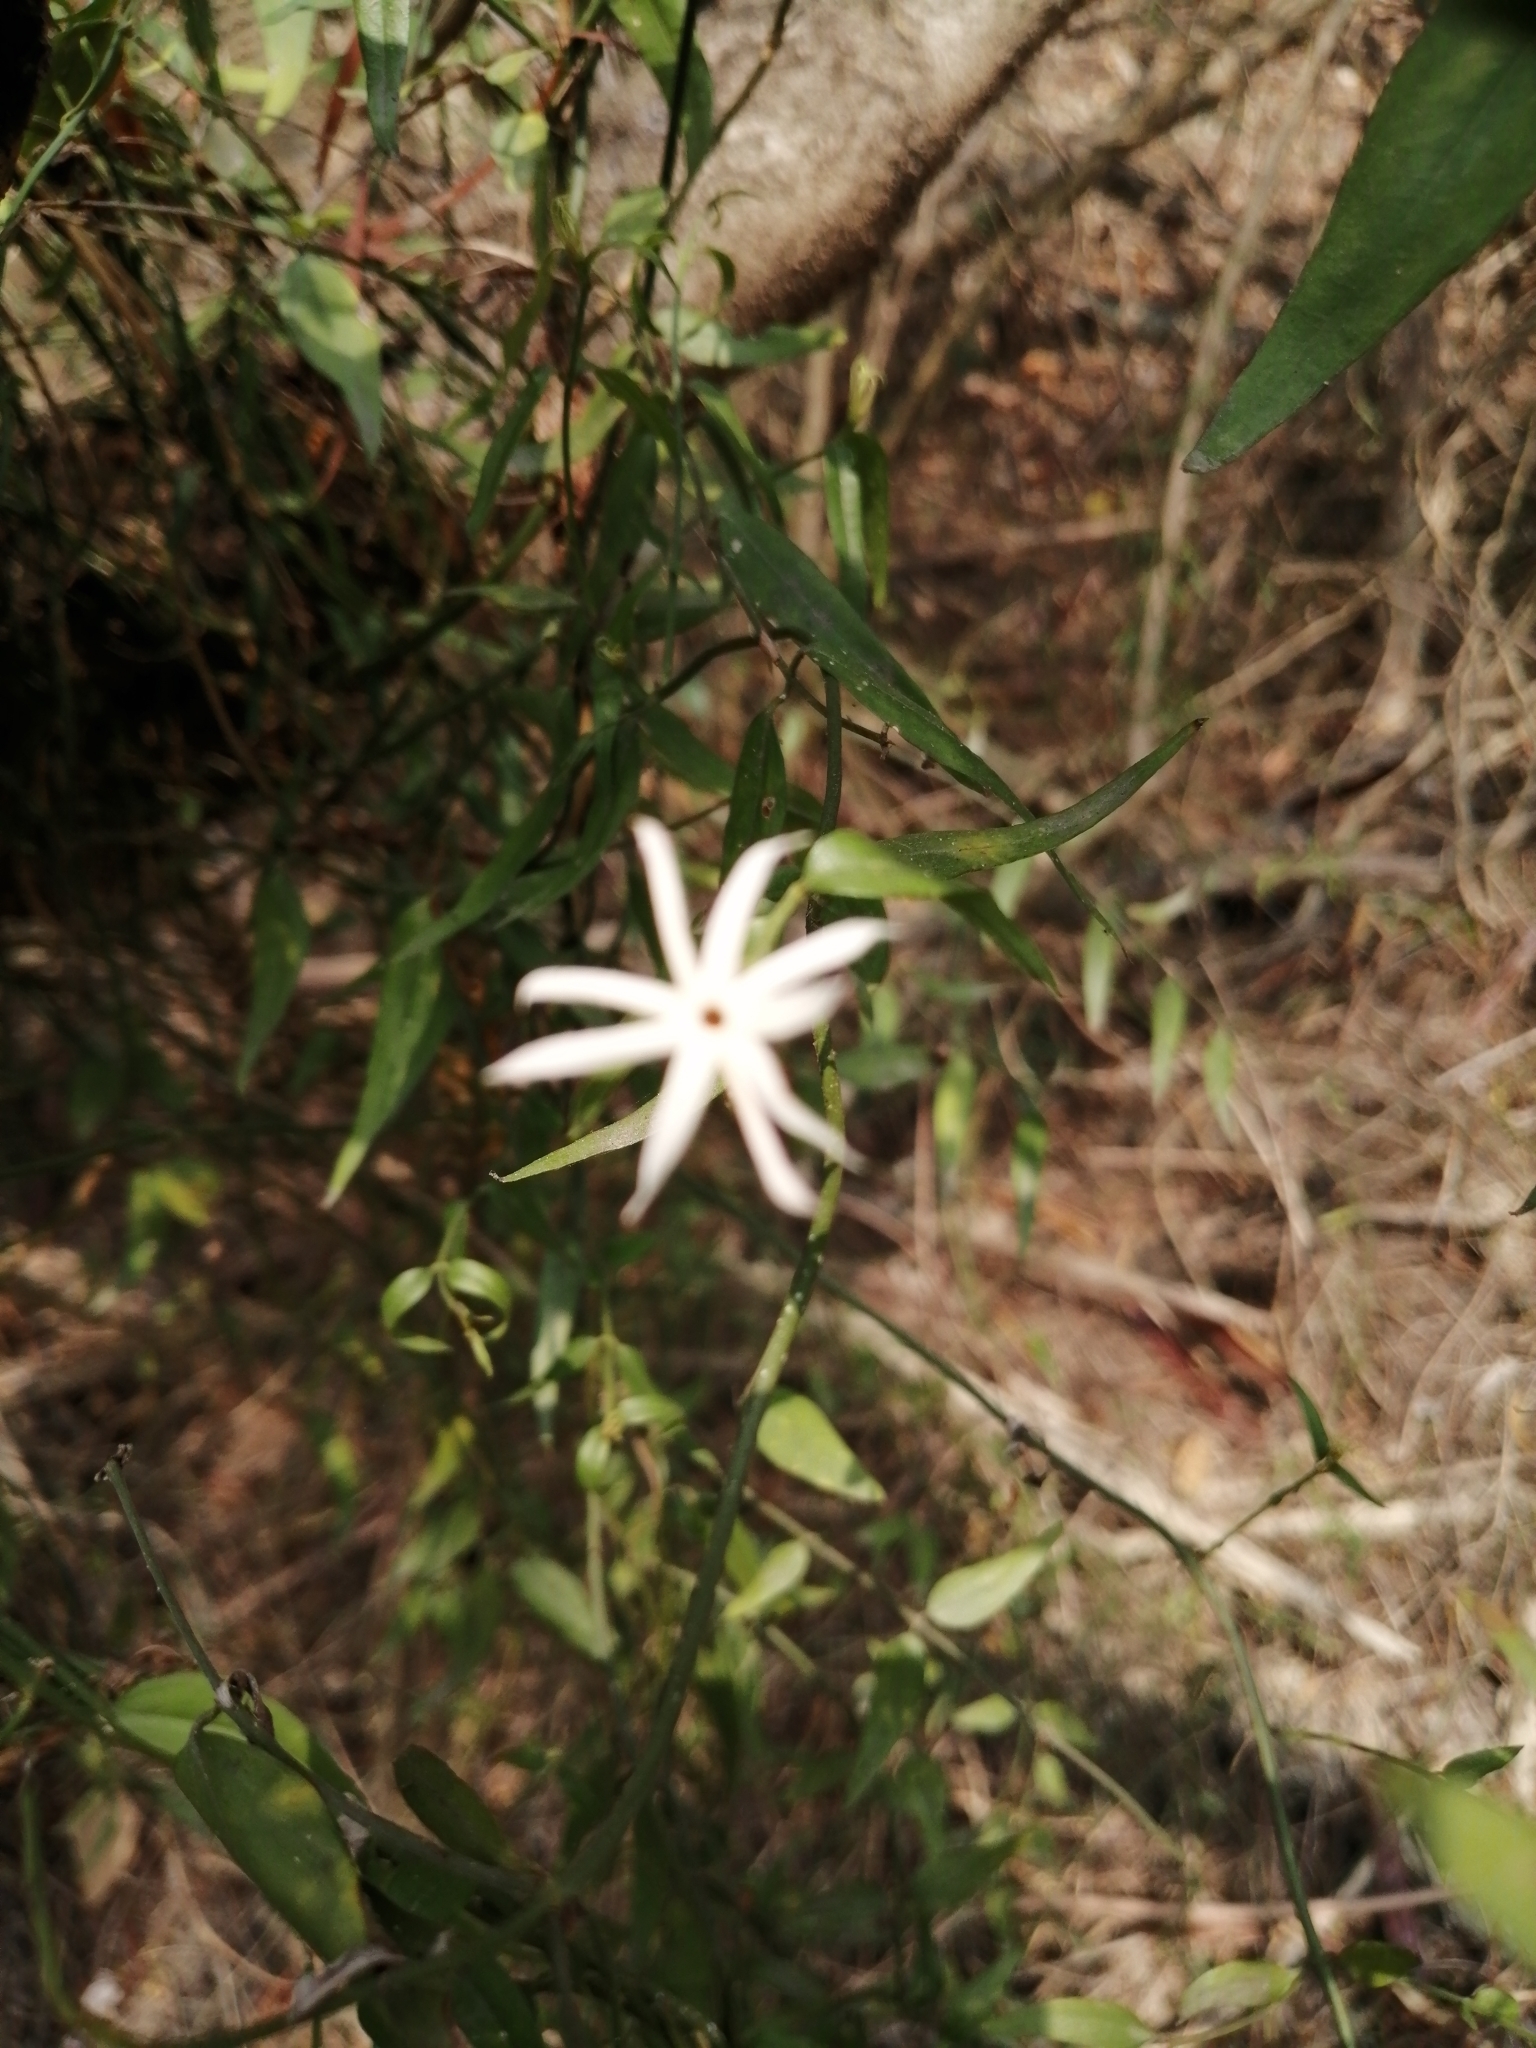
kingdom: Plantae
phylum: Tracheophyta
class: Magnoliopsida
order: Lamiales
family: Oleaceae
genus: Jasminum
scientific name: Jasminum nervosum
